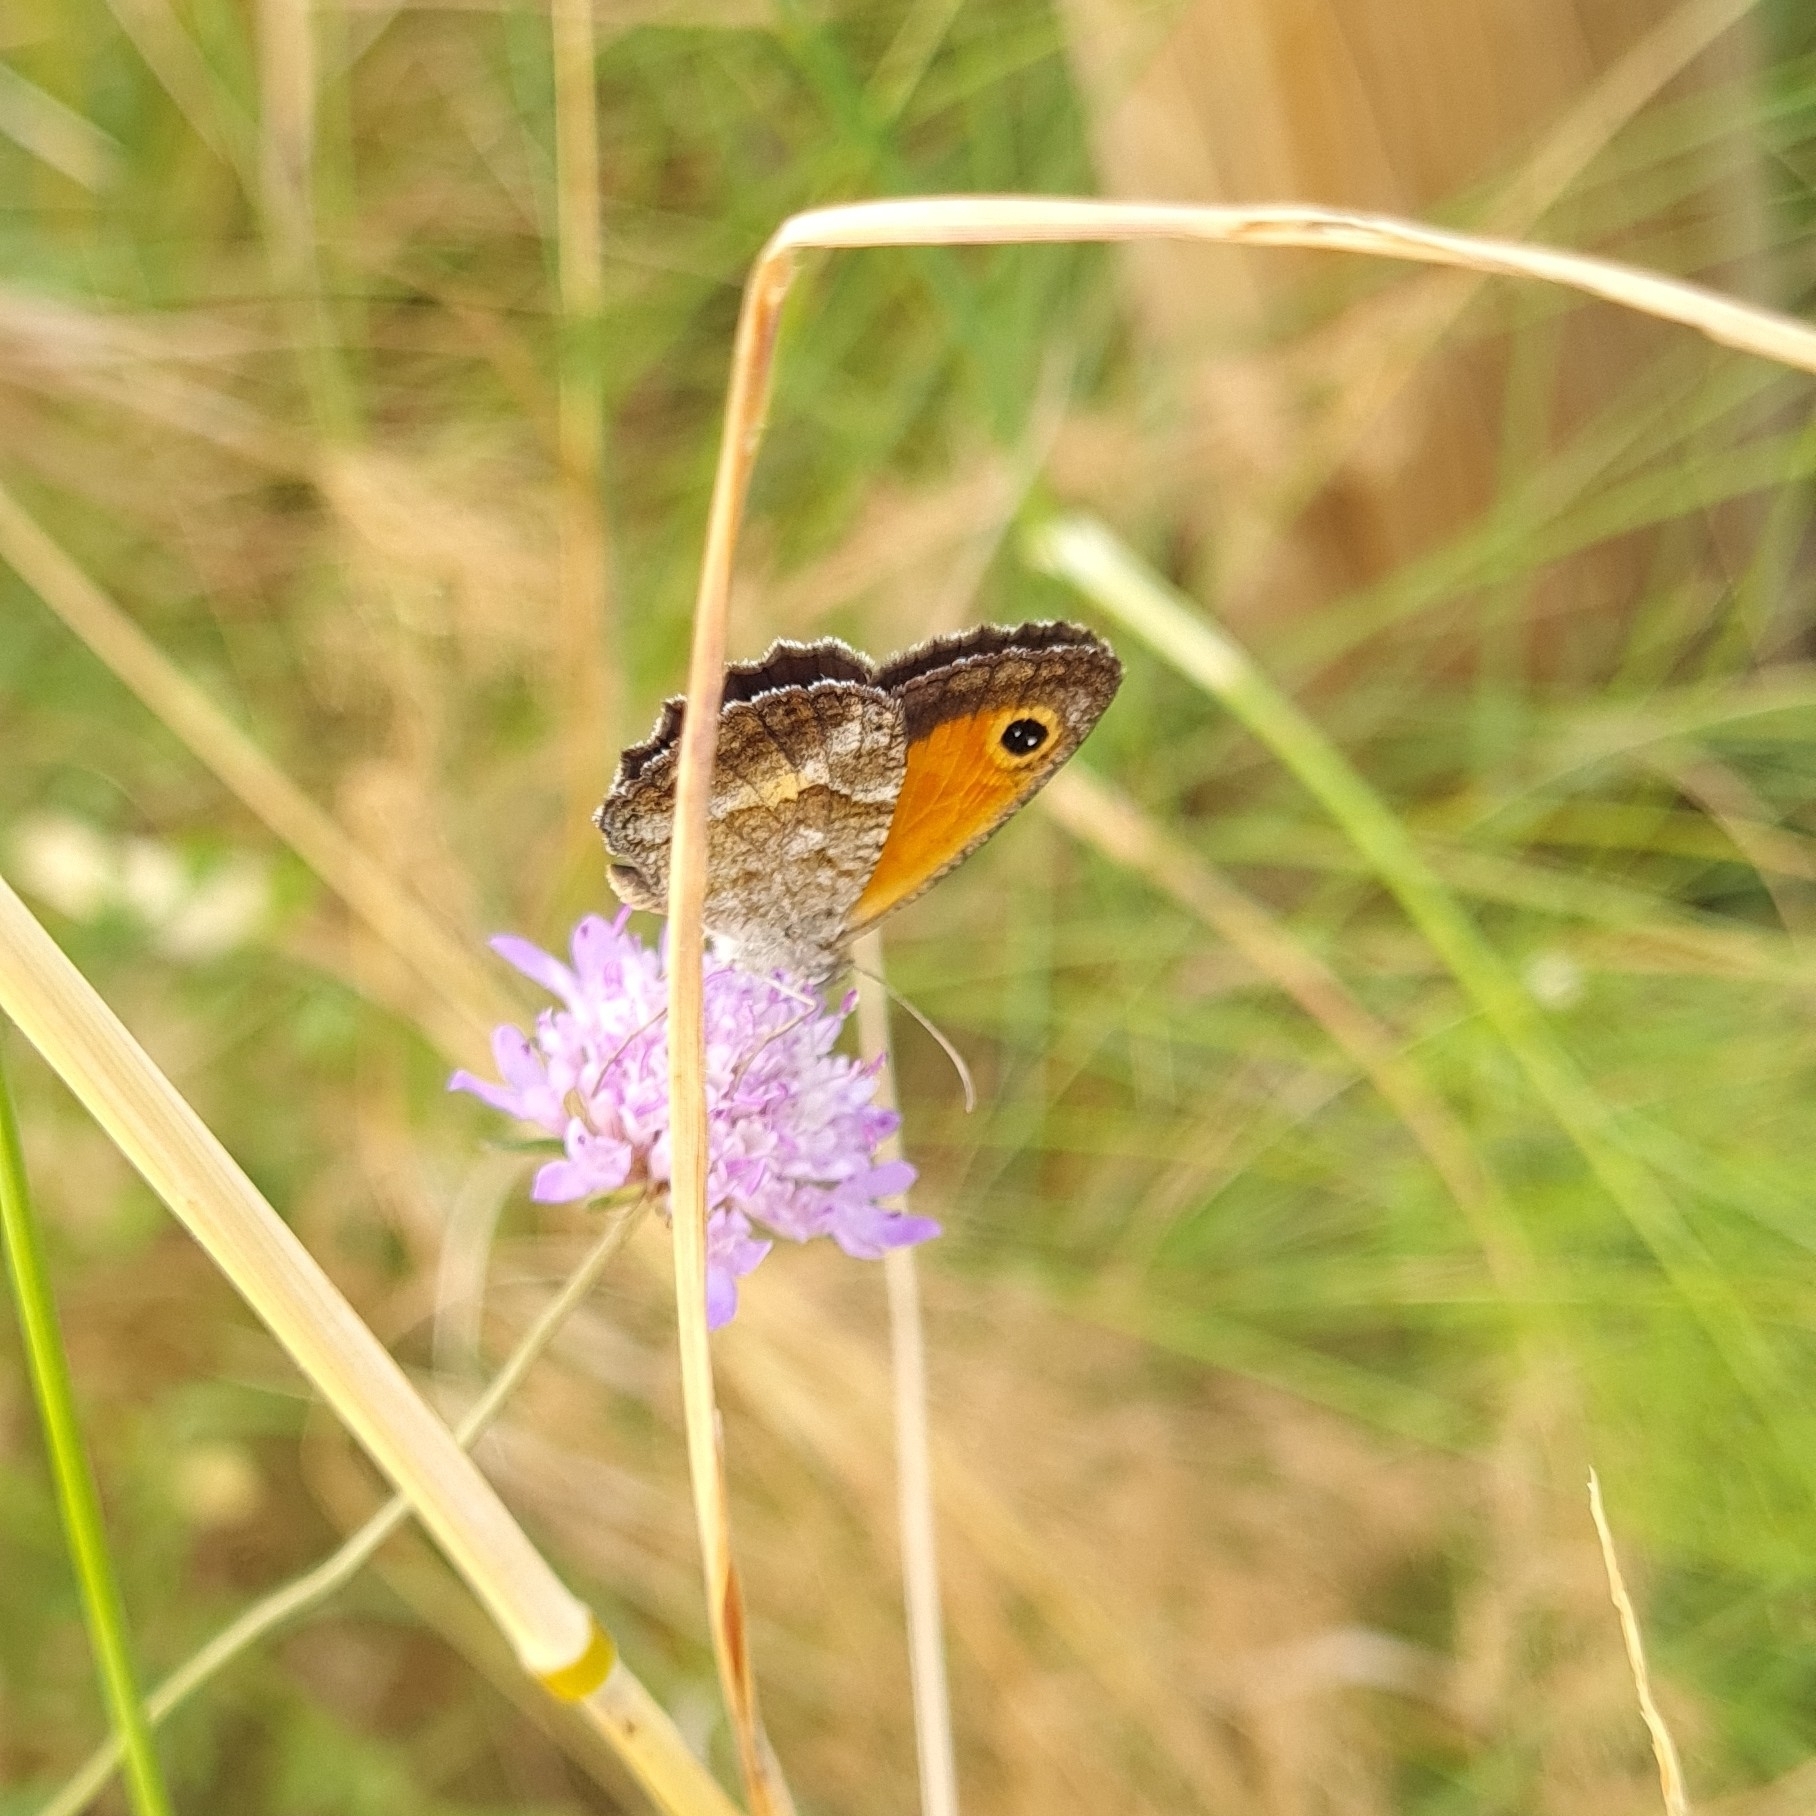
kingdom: Animalia
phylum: Arthropoda
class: Insecta
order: Lepidoptera
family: Nymphalidae
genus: Pyronia
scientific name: Pyronia cecilia
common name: Southern gatekeeper
